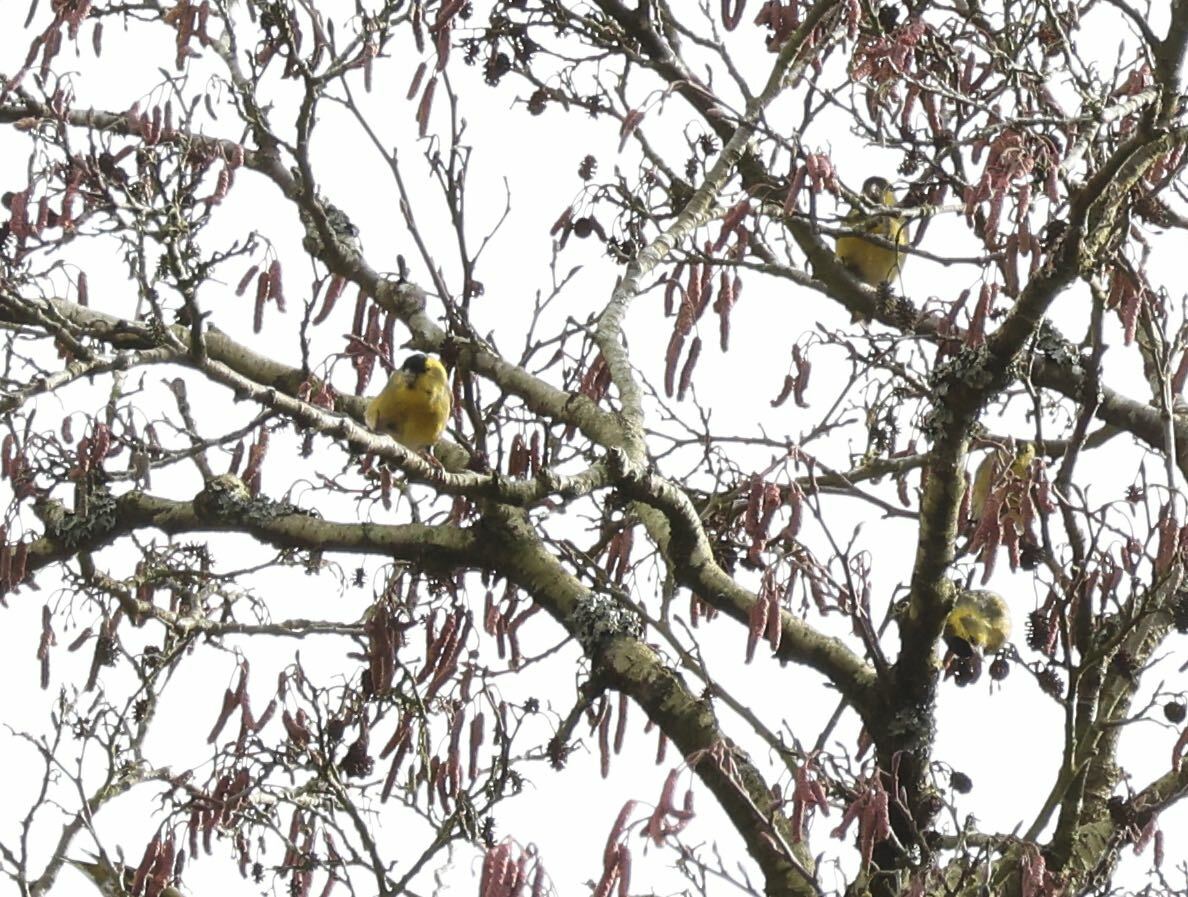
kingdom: Animalia
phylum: Chordata
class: Aves
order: Passeriformes
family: Fringillidae
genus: Spinus
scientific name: Spinus spinus
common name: Eurasian siskin
